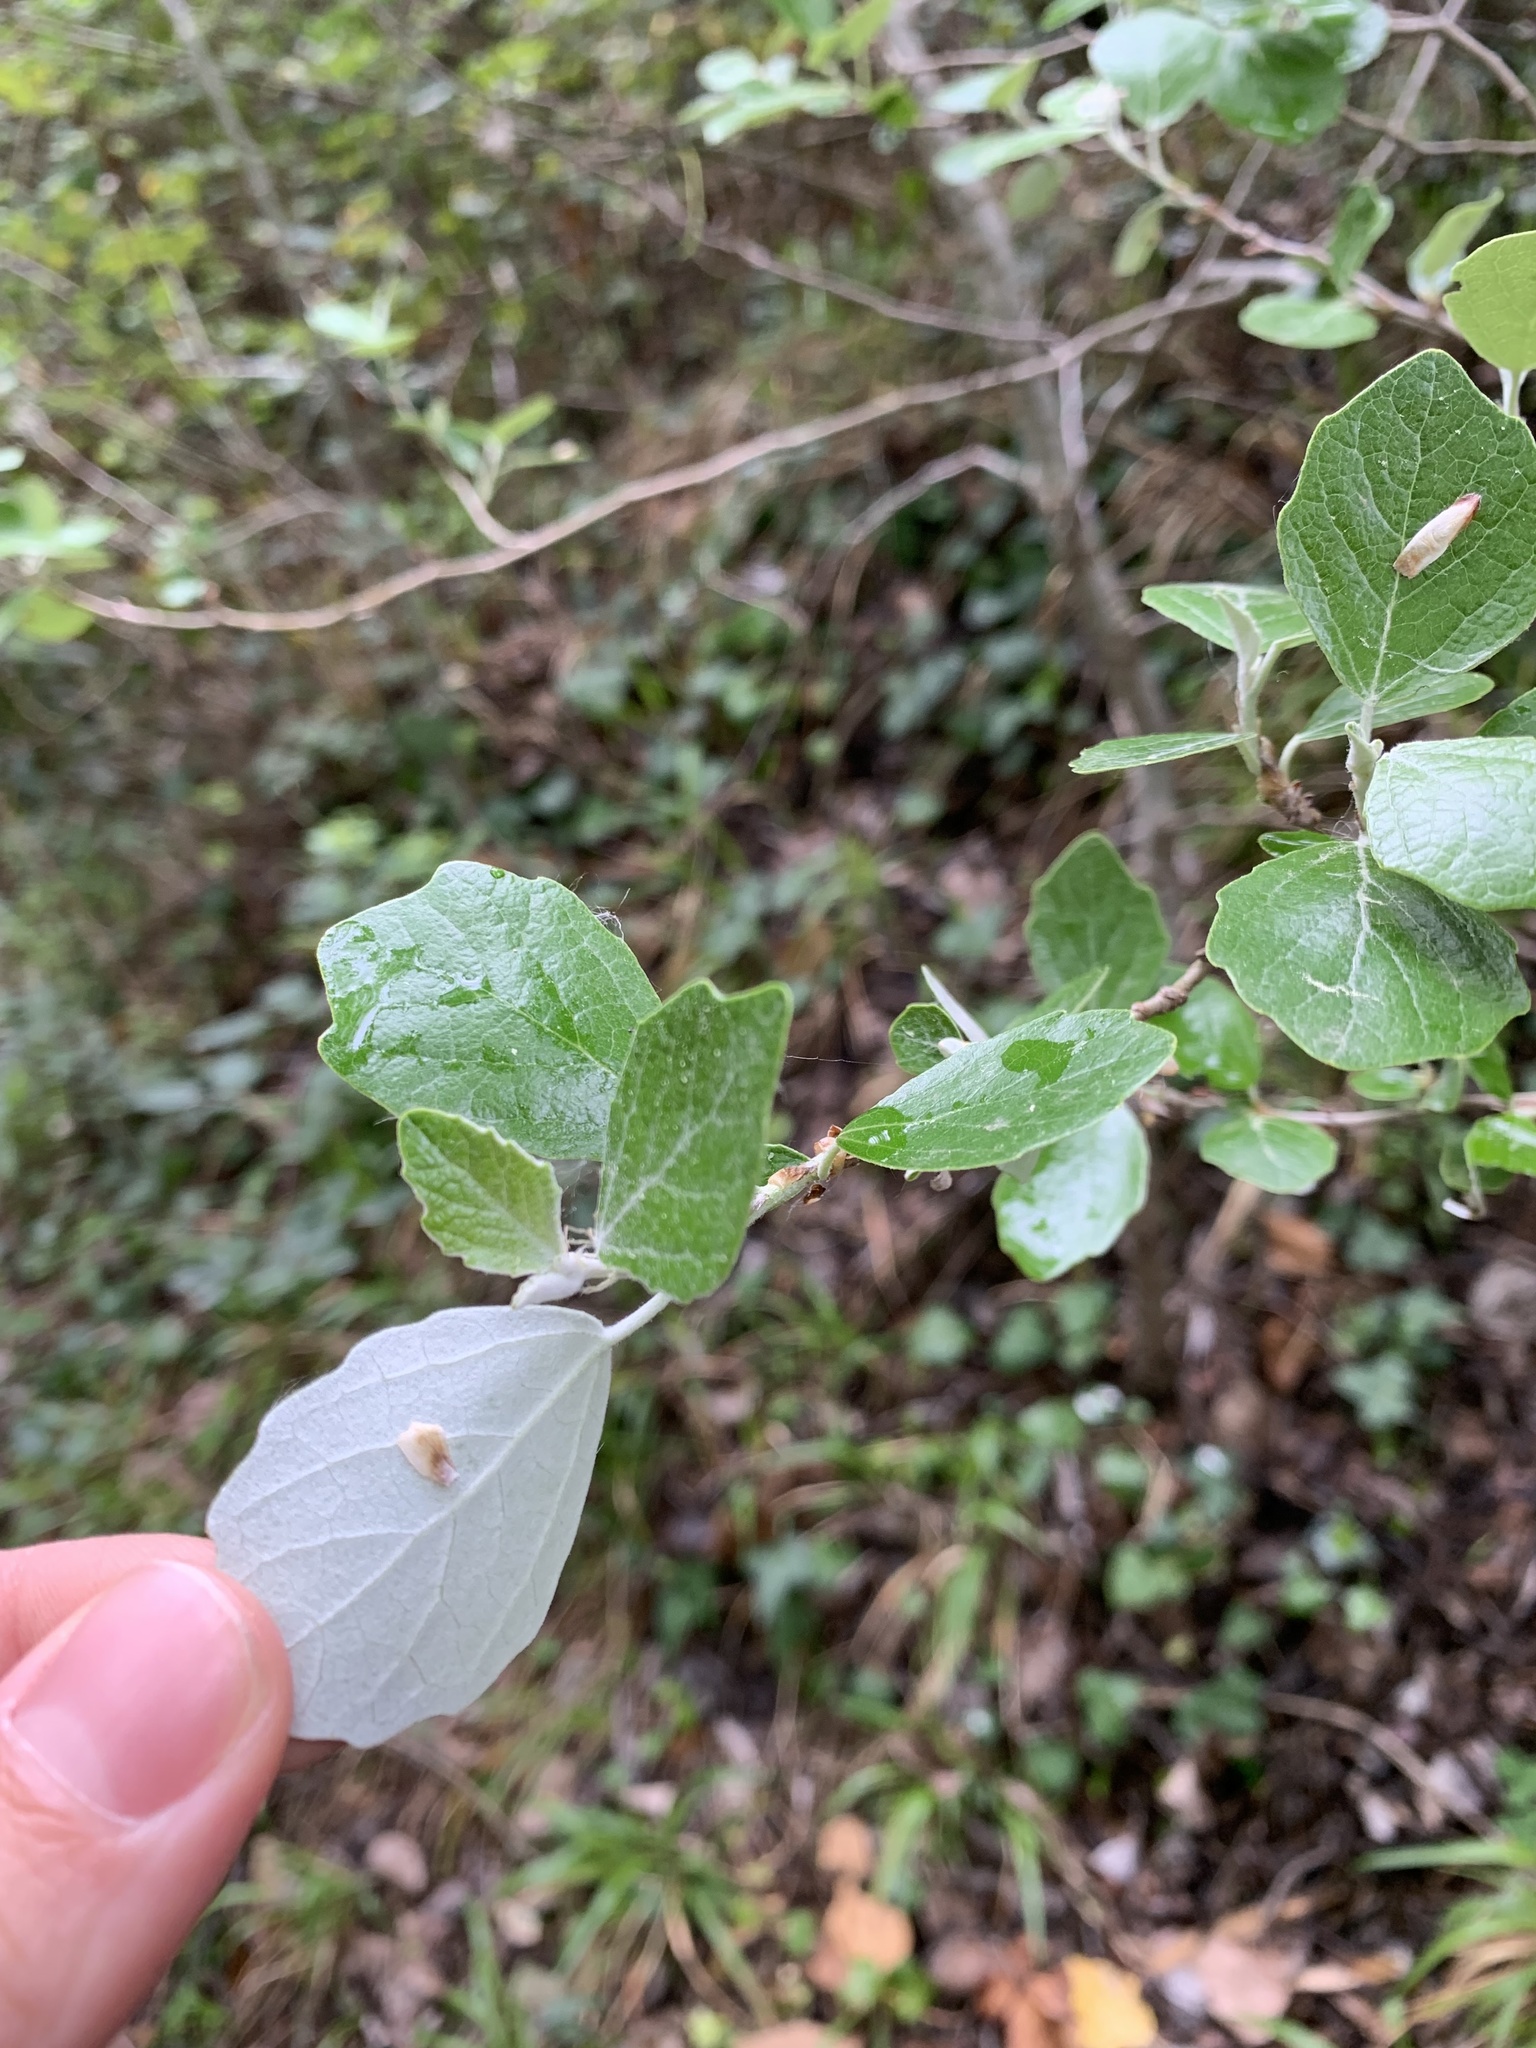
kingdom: Plantae
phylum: Tracheophyta
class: Magnoliopsida
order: Malpighiales
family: Salicaceae
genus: Populus
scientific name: Populus alba
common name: White poplar
